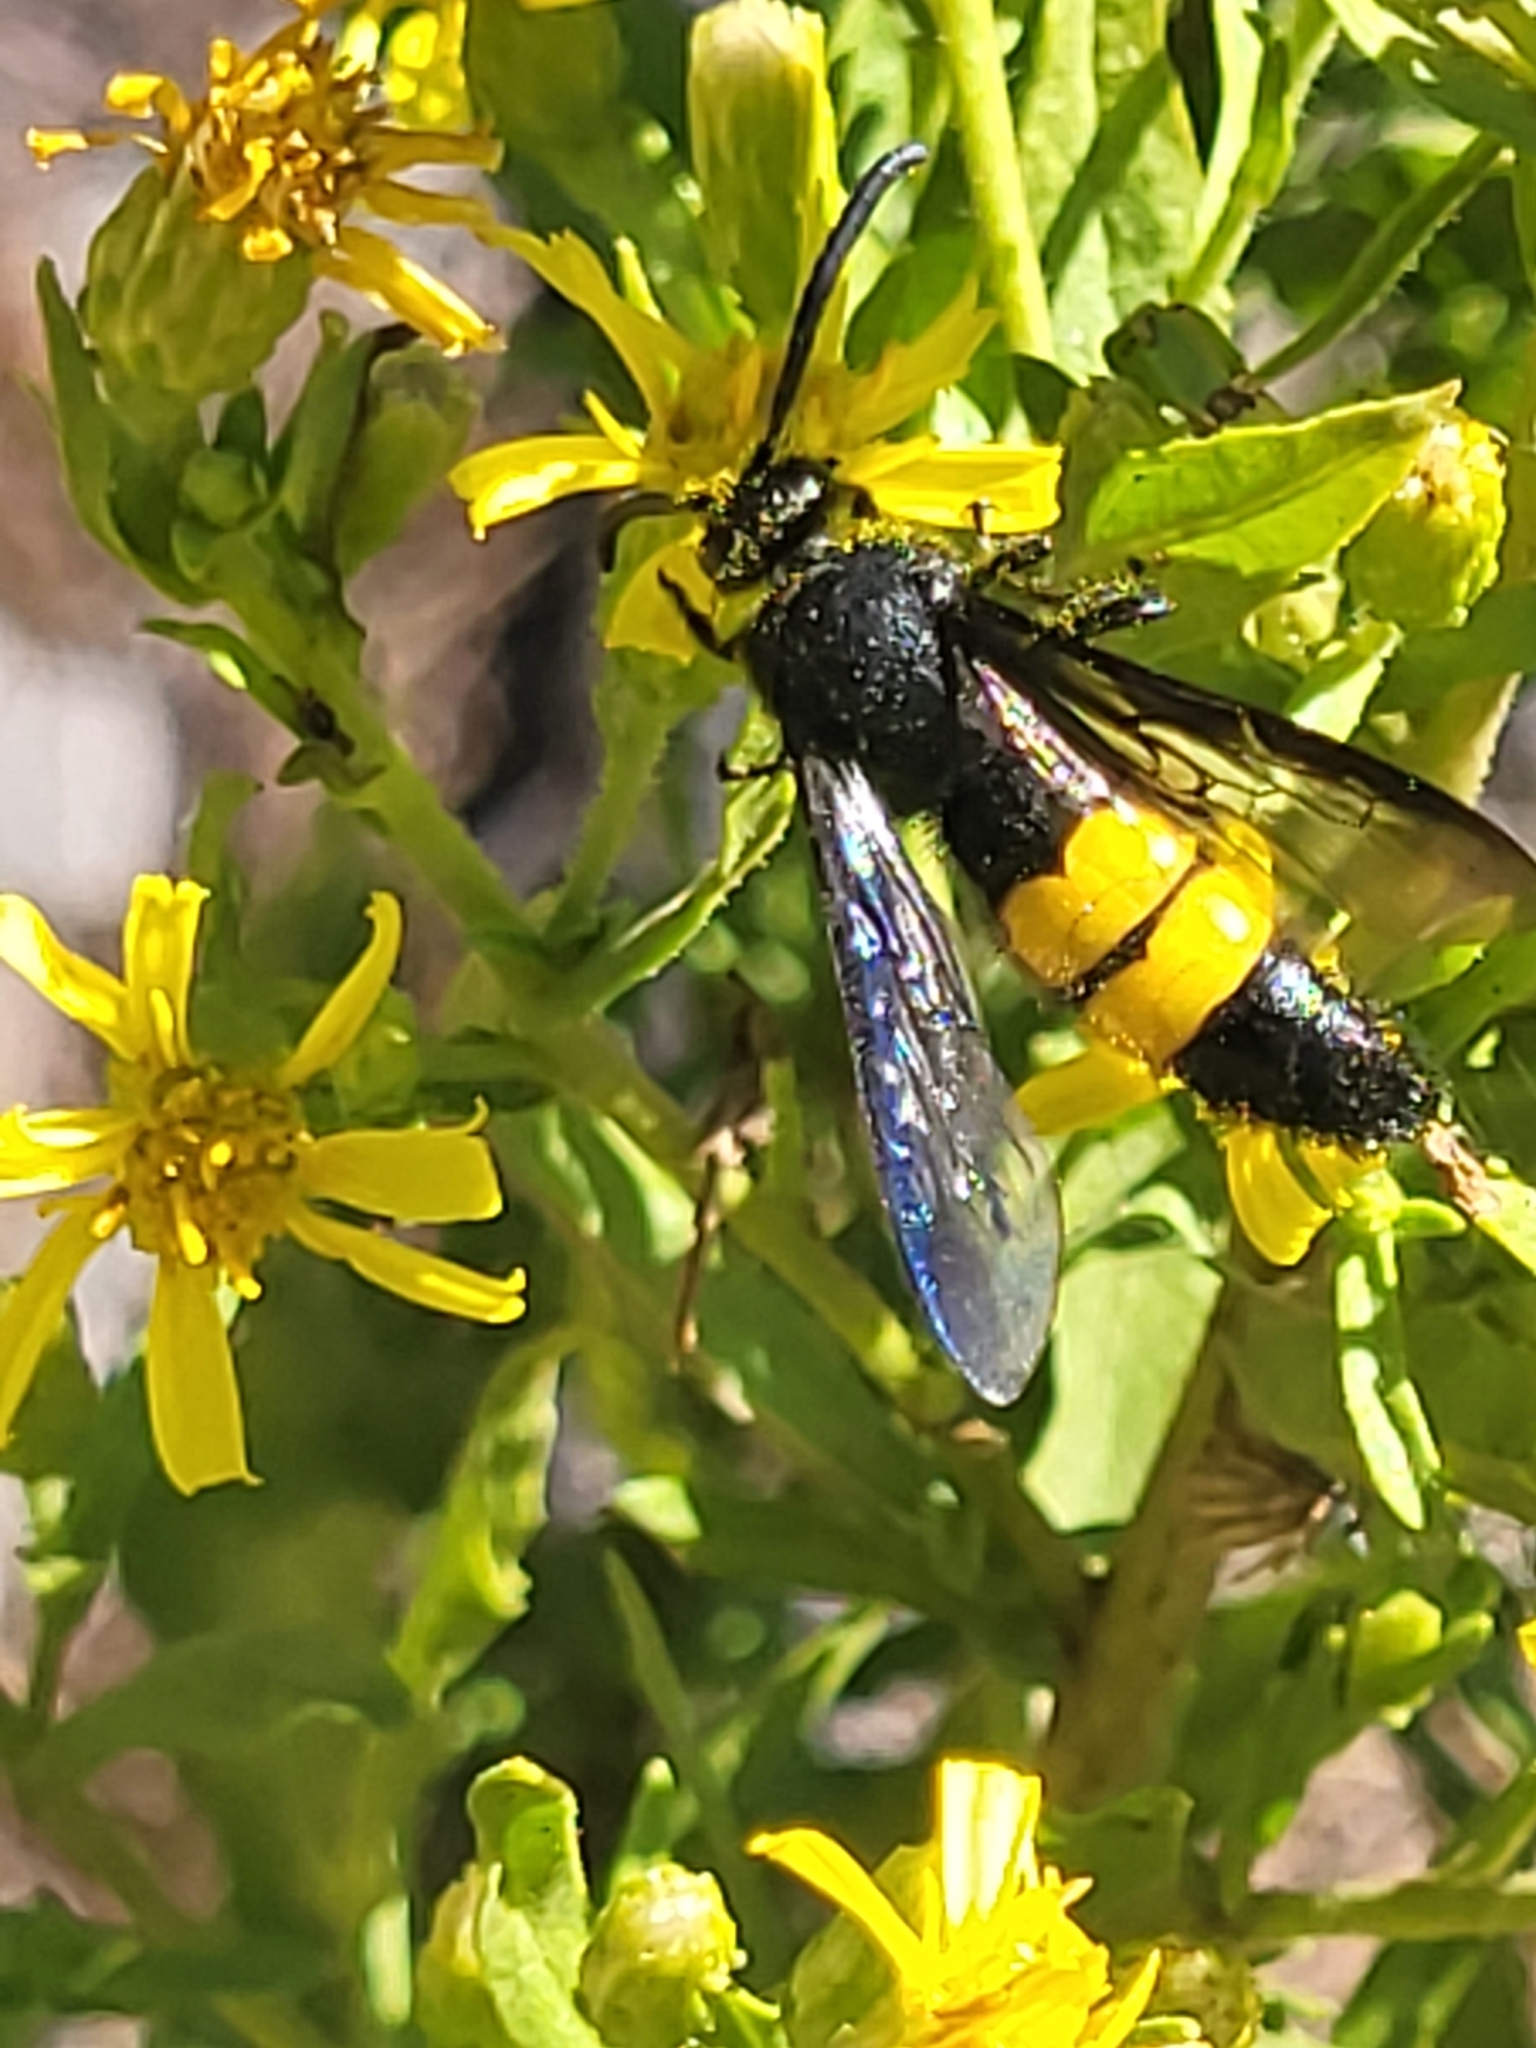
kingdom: Animalia
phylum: Arthropoda
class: Insecta
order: Hymenoptera
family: Scoliidae
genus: Scolia
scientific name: Scolia hirta
